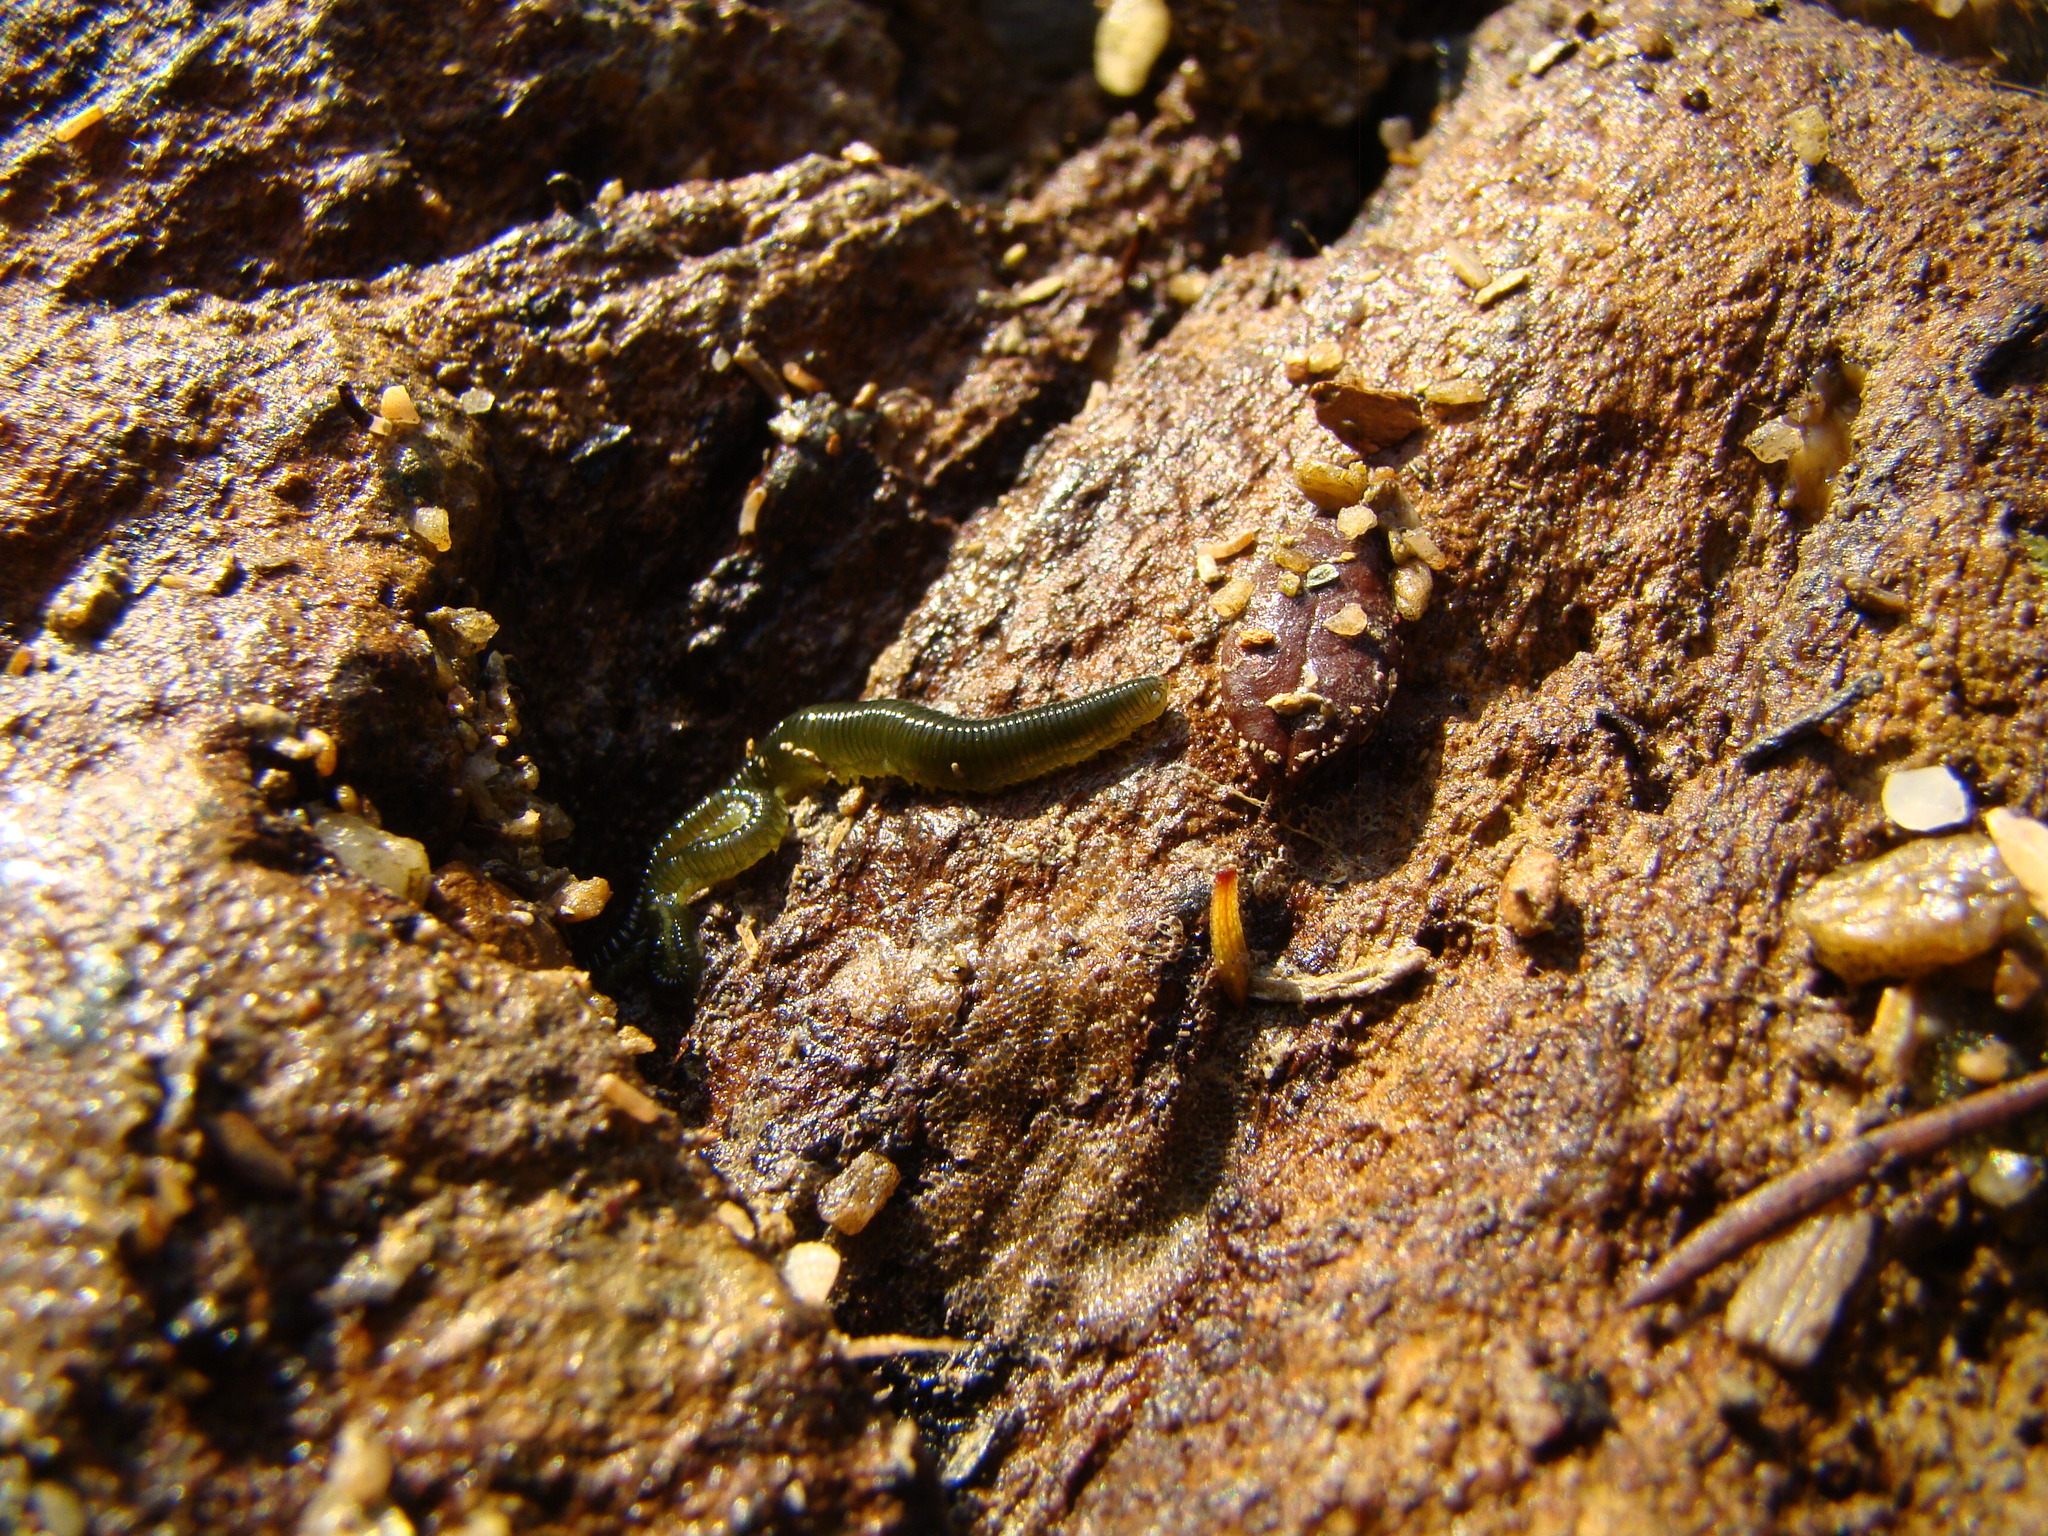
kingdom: Animalia
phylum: Annelida
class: Polychaeta
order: Phyllodocida
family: Phyllodocidae
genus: Eulalia
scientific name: Eulalia microphylla
